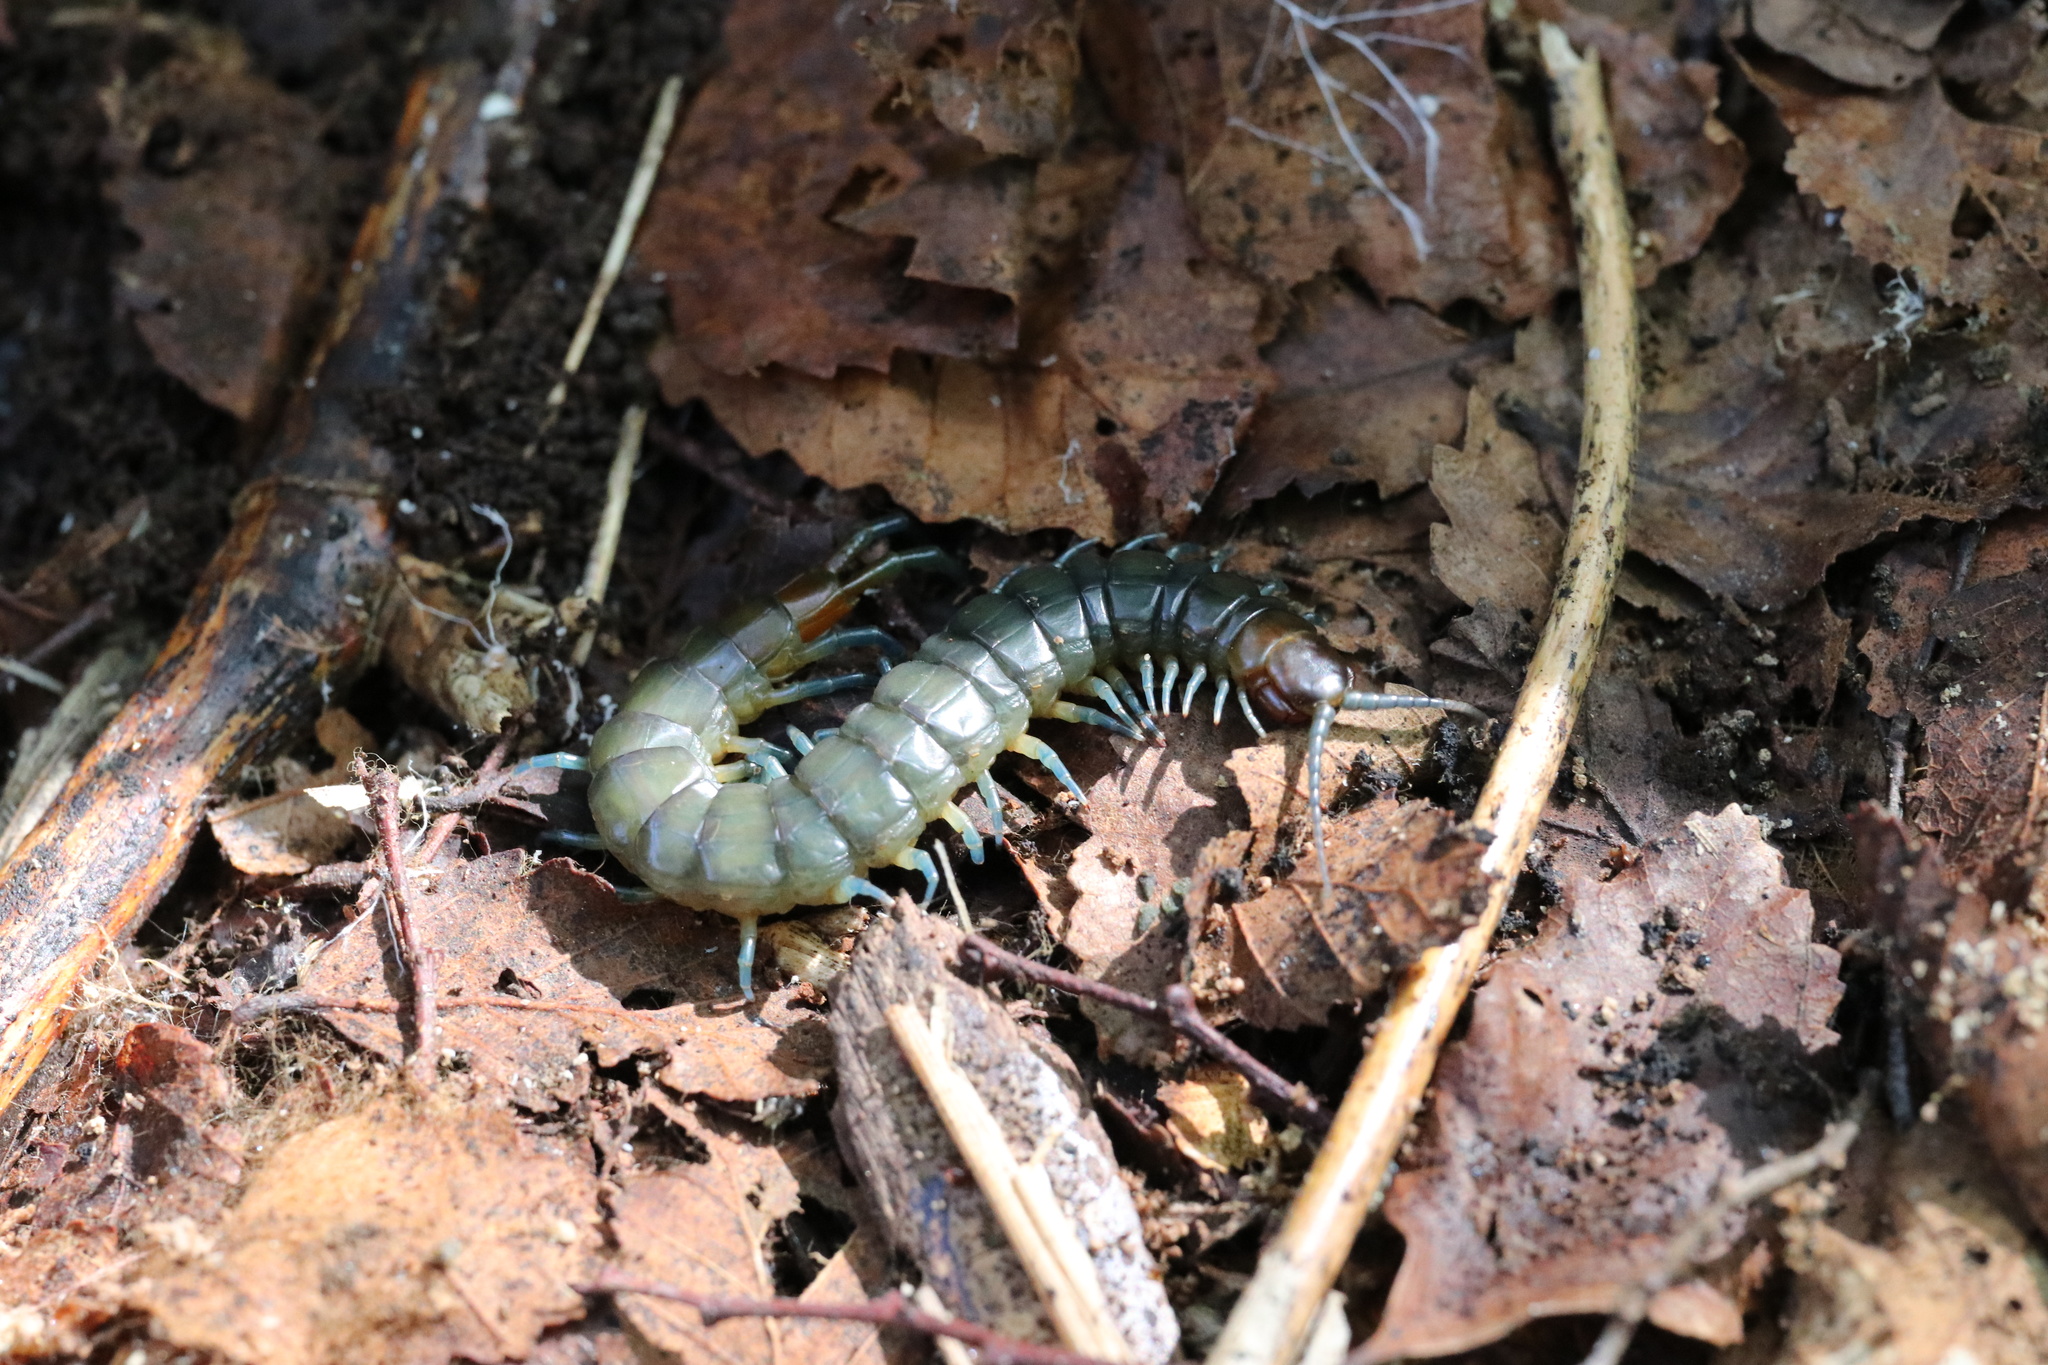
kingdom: Animalia
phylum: Arthropoda
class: Chilopoda
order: Scolopendromorpha
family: Scolopendridae
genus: Hemiscolopendra
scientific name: Hemiscolopendra chilensis
